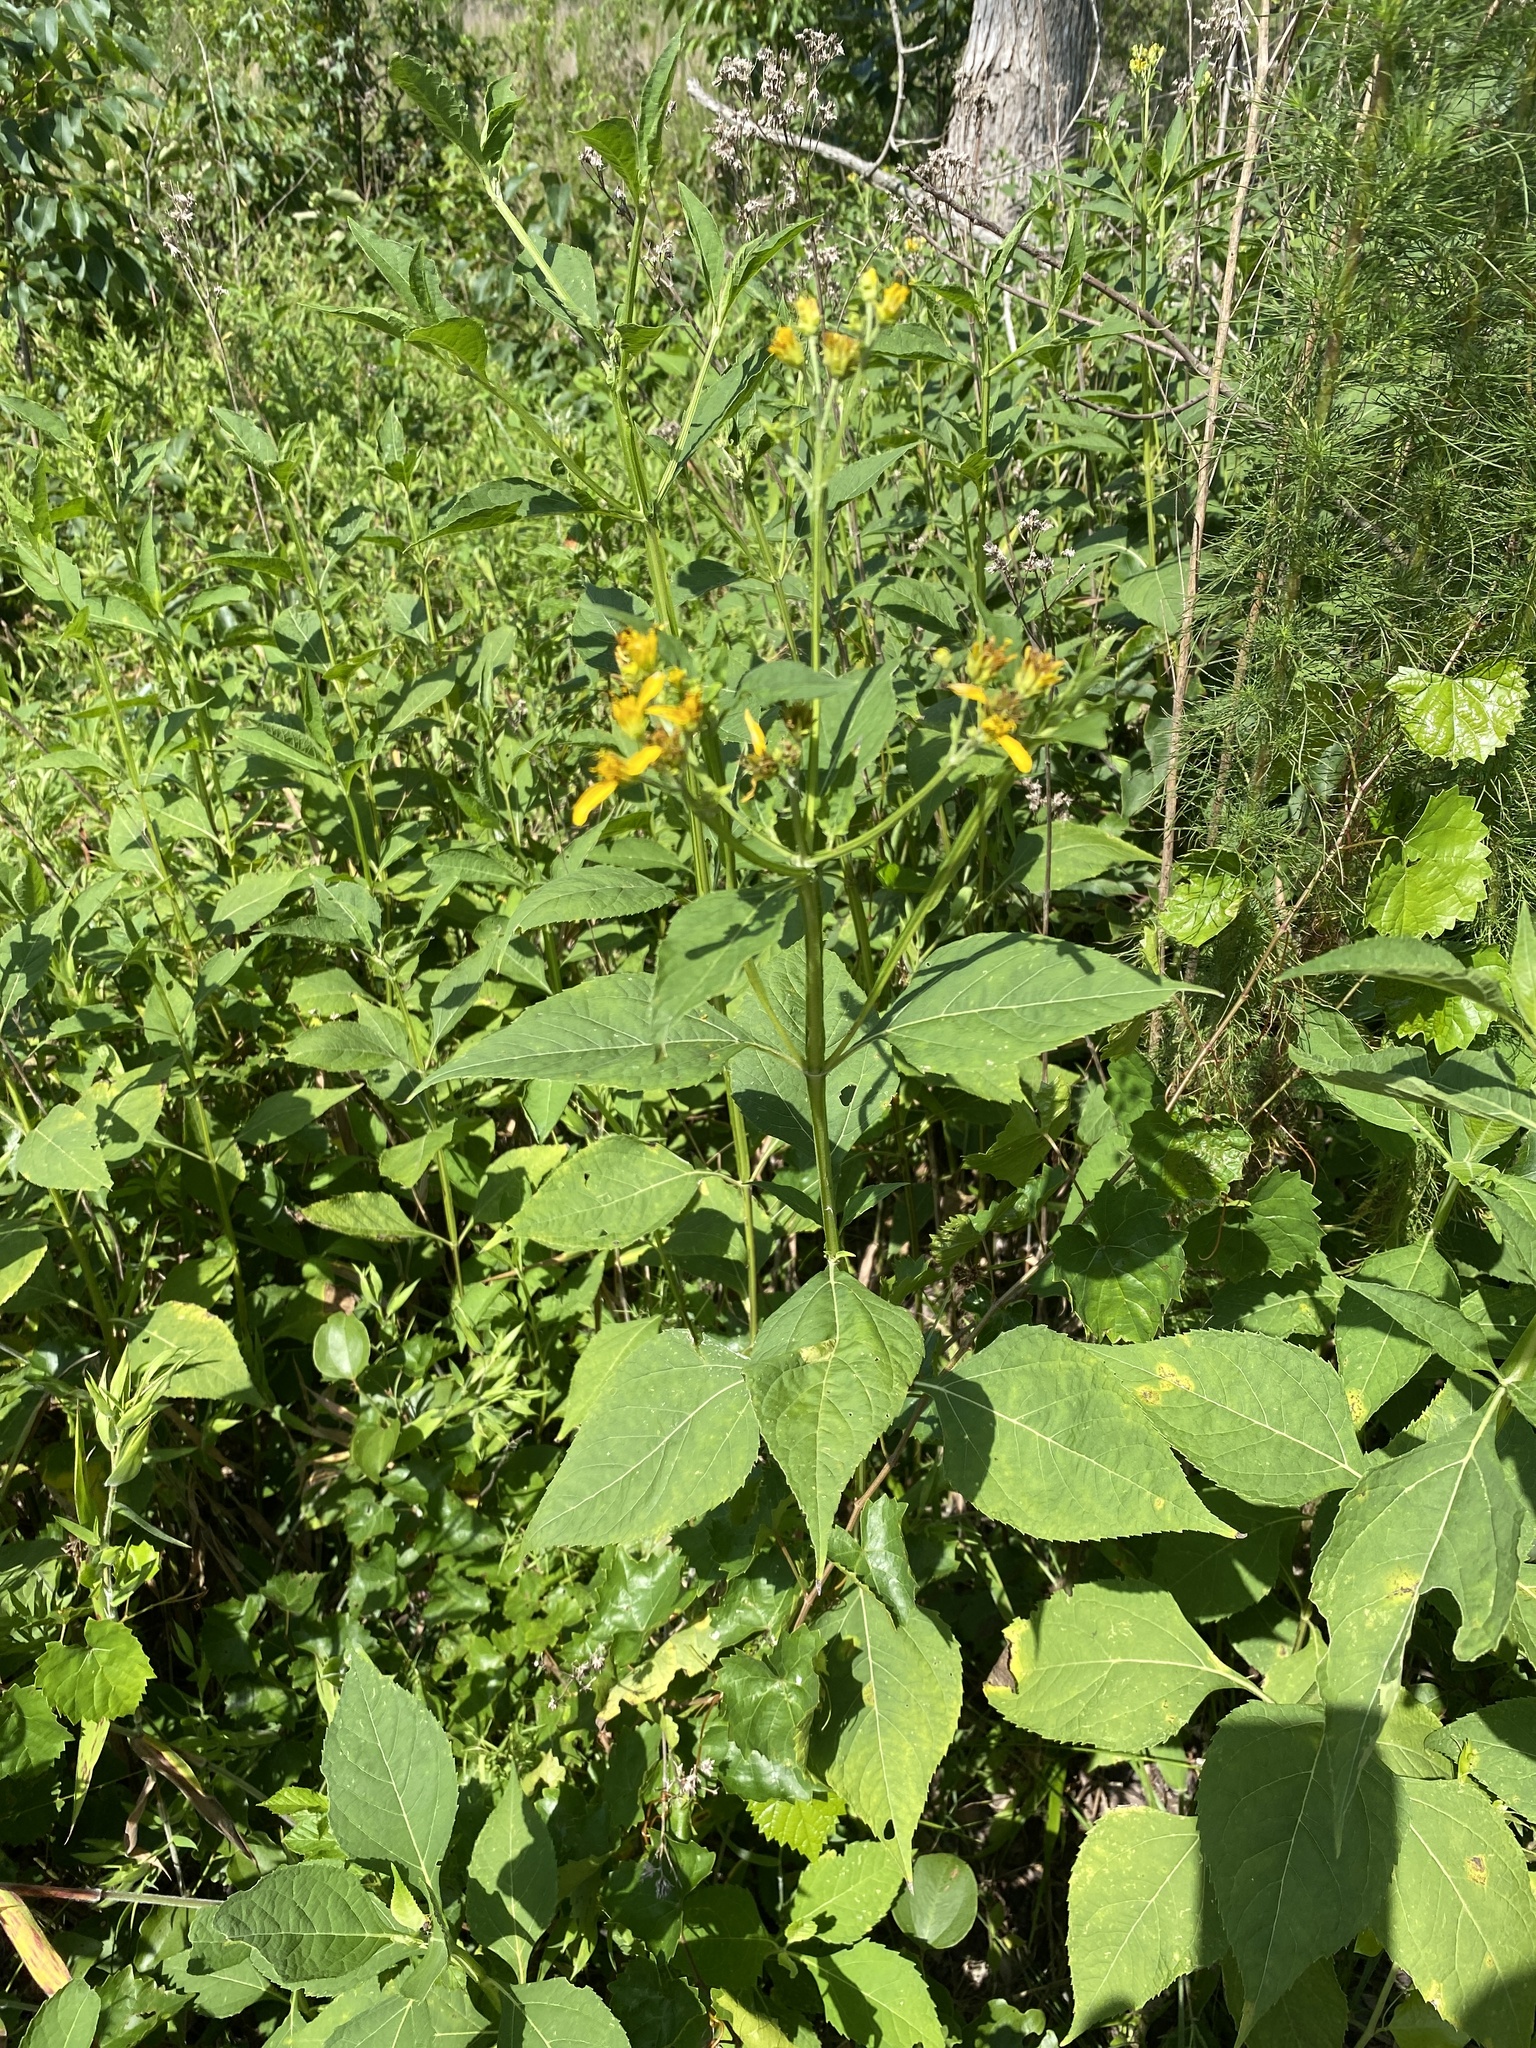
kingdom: Plantae
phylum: Tracheophyta
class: Magnoliopsida
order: Asterales
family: Asteraceae
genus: Verbesina
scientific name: Verbesina occidentalis
